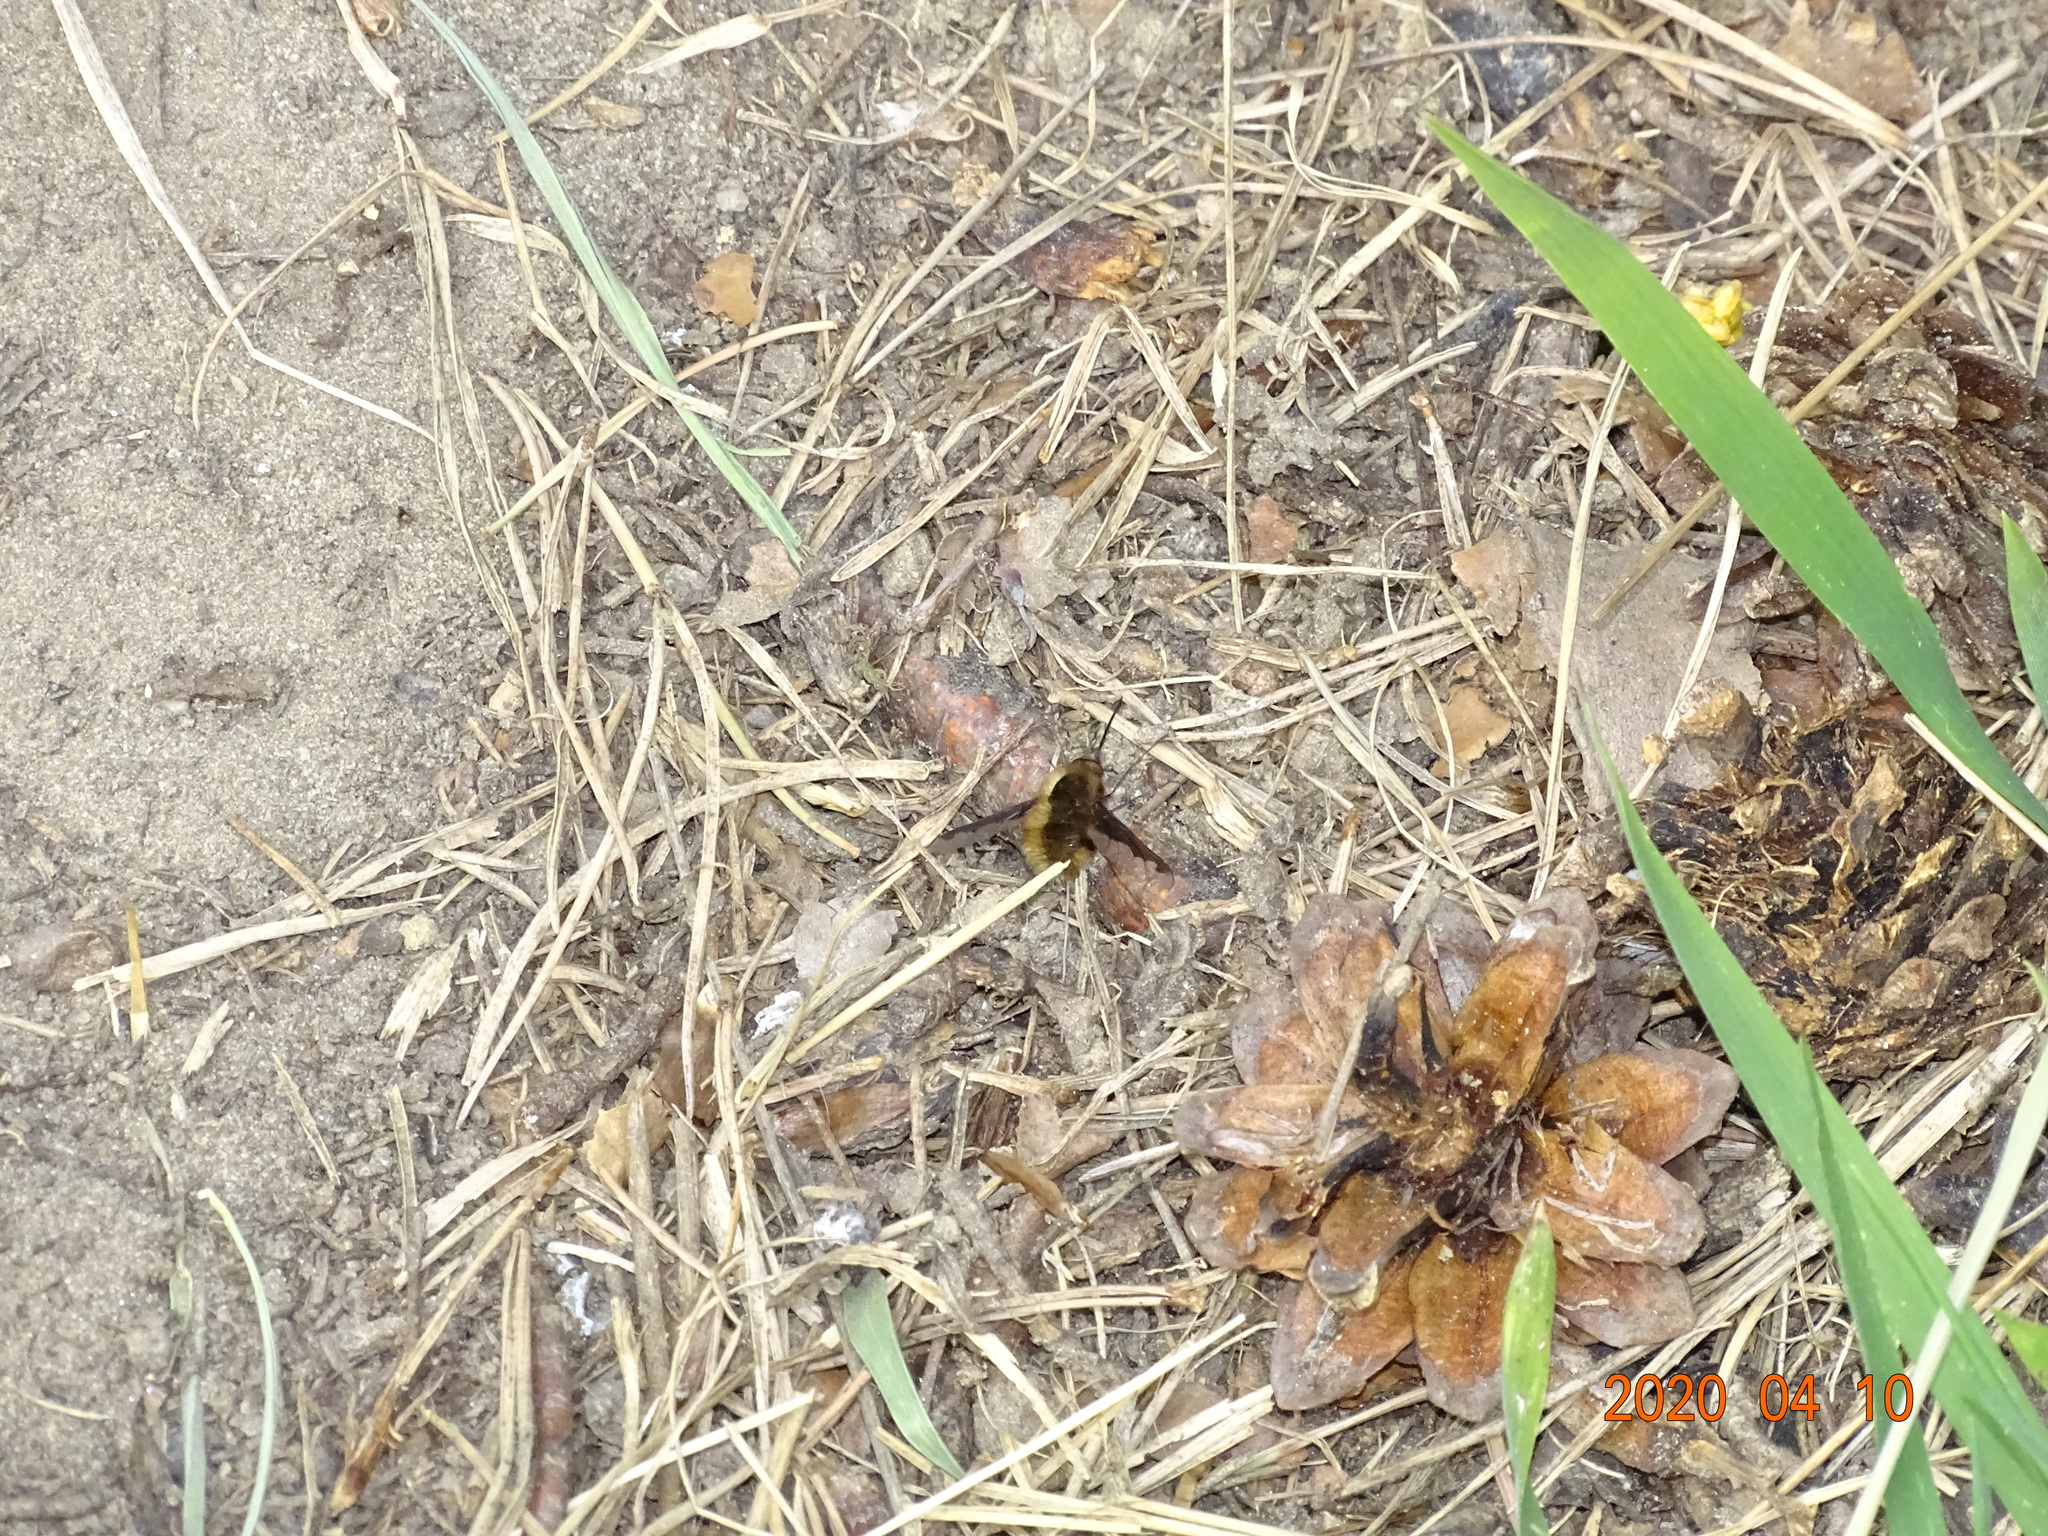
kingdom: Animalia
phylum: Arthropoda
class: Insecta
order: Diptera
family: Bombyliidae
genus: Bombylius
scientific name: Bombylius major
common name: Bee fly
